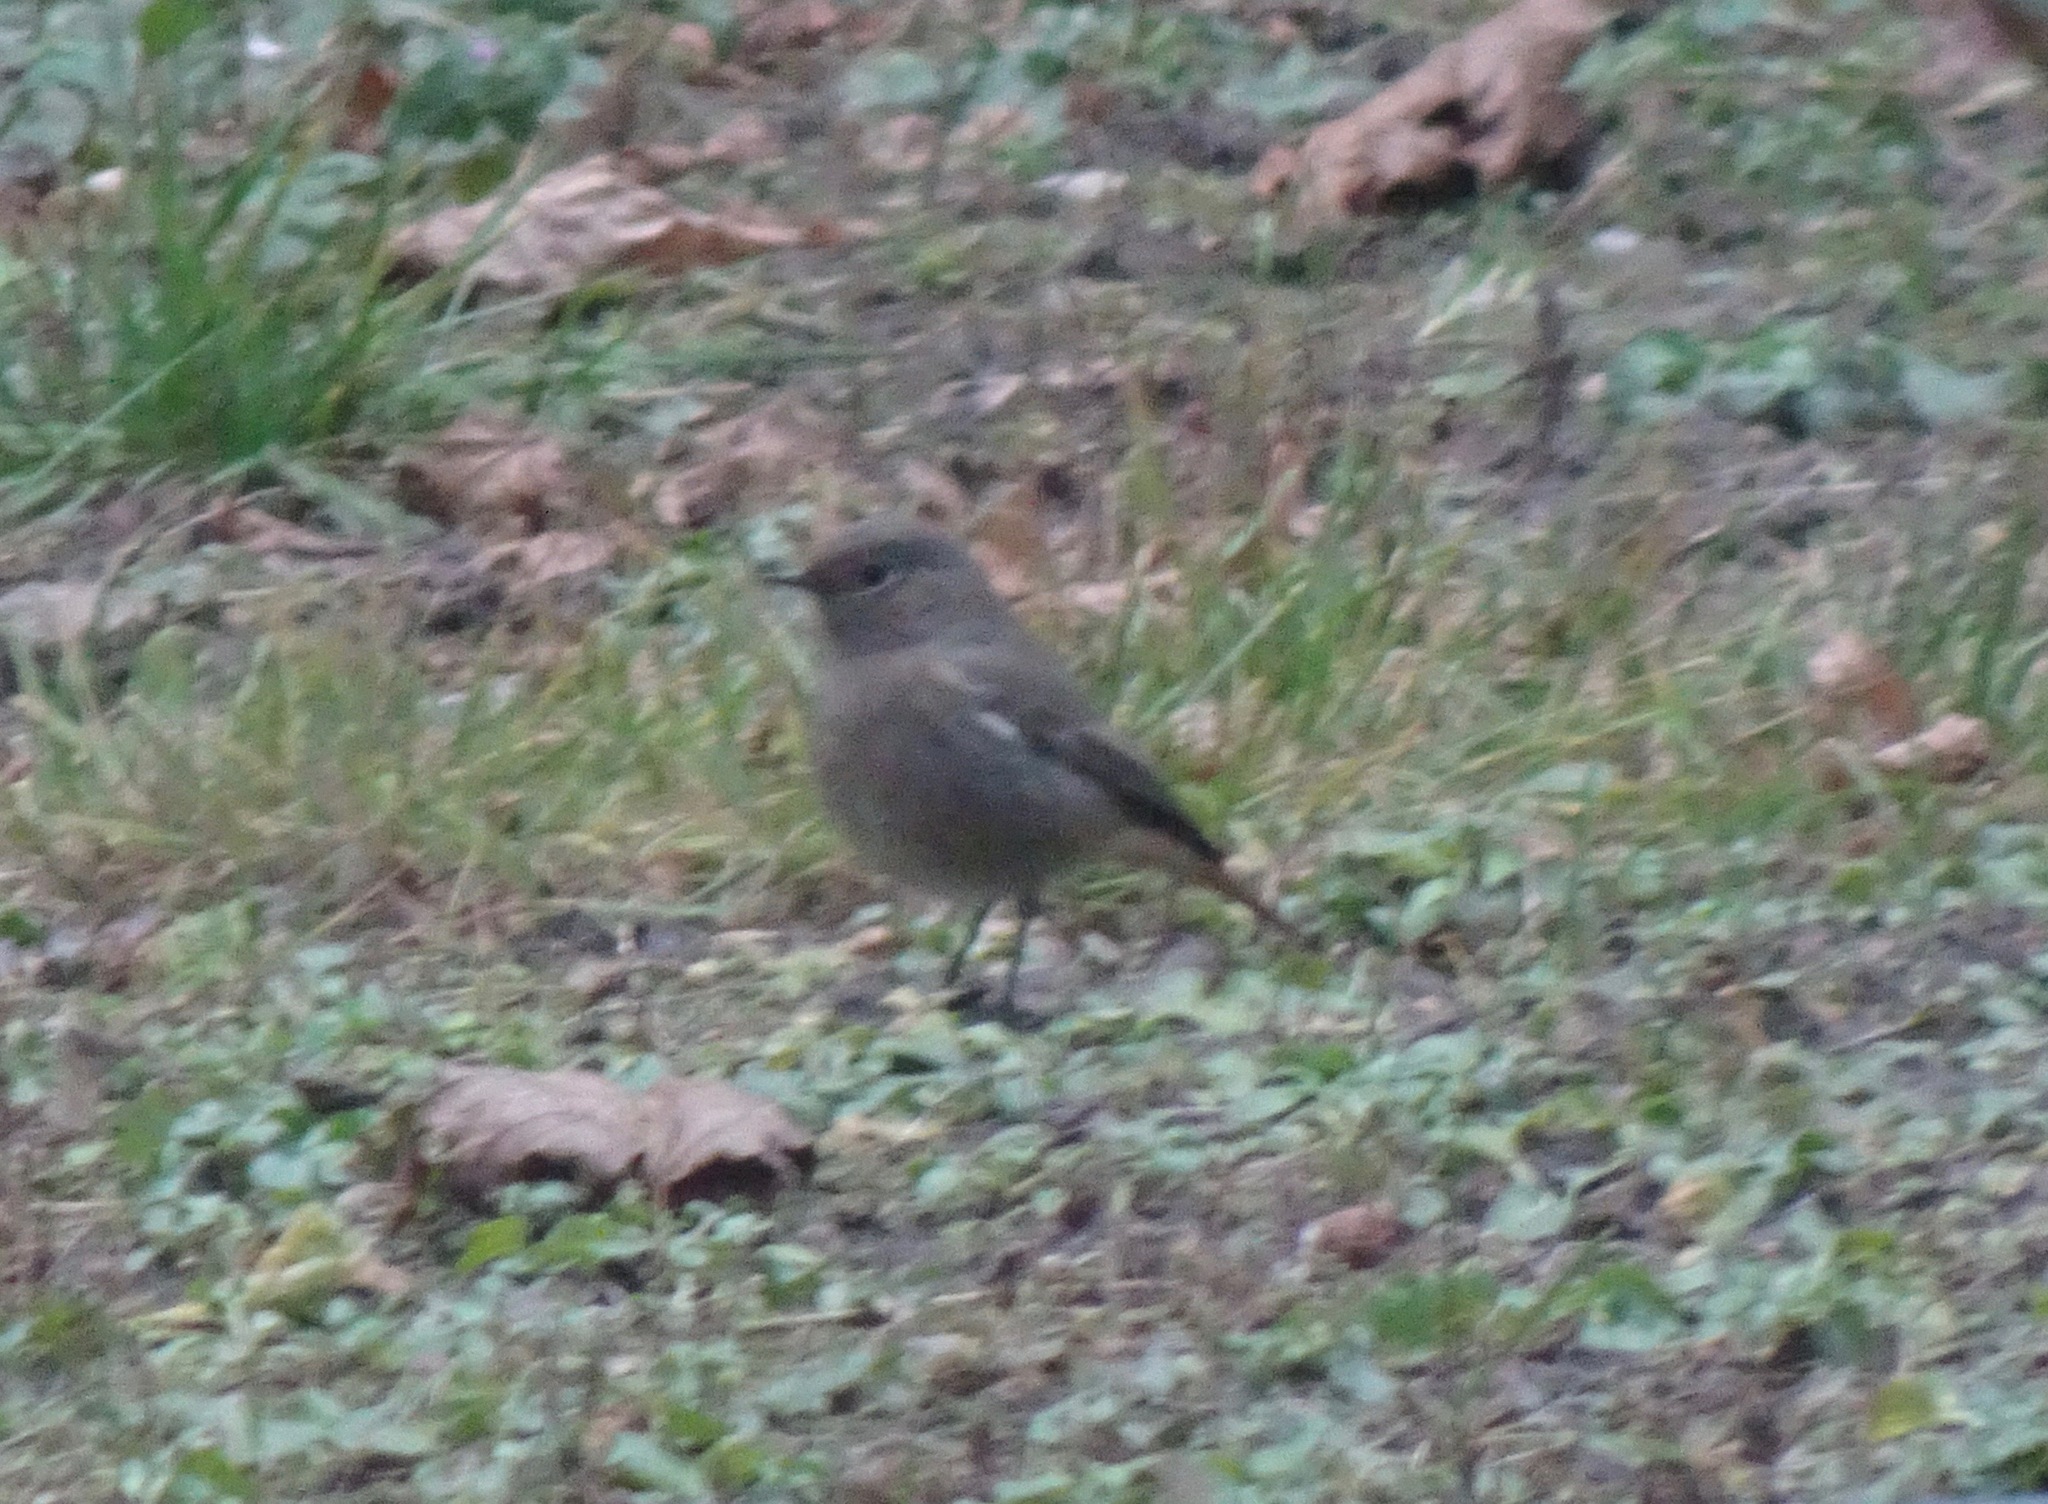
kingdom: Animalia
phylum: Chordata
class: Aves
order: Passeriformes
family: Muscicapidae
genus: Phoenicurus
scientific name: Phoenicurus ochruros
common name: Black redstart
